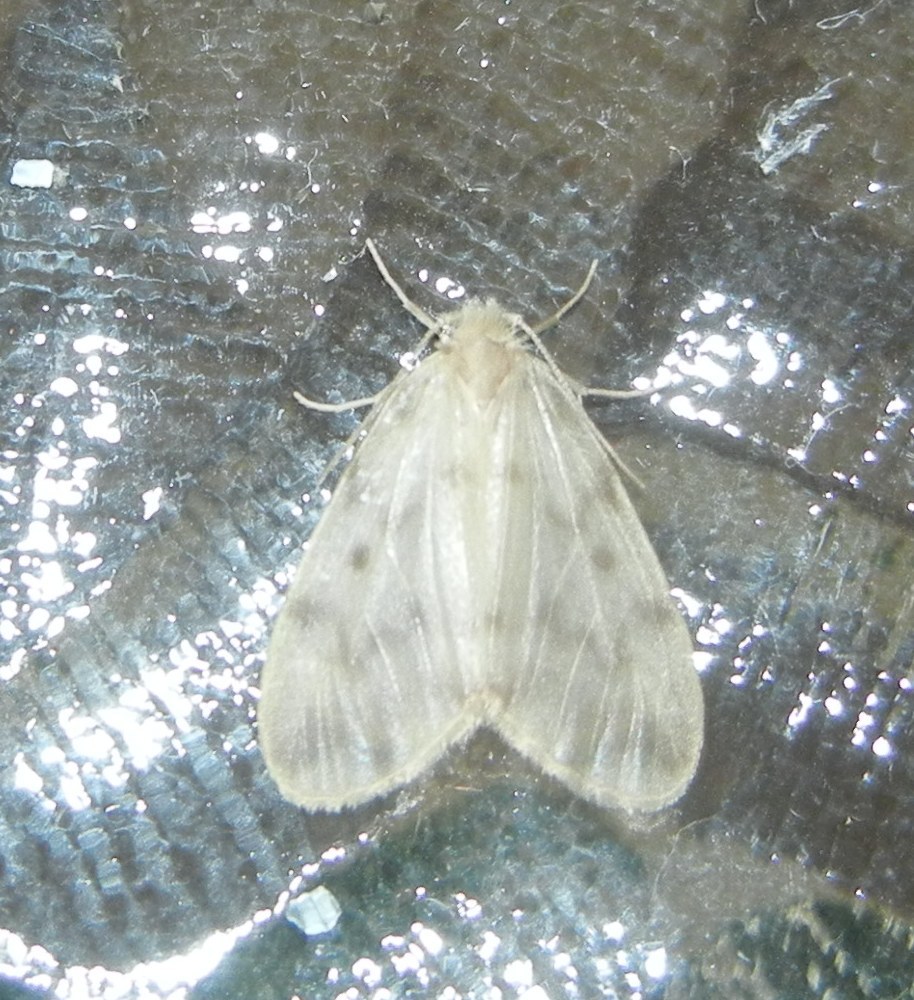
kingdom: Animalia
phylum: Arthropoda
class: Insecta
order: Lepidoptera
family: Erebidae
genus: Nudaria
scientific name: Nudaria mundana
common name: Muslin footman
